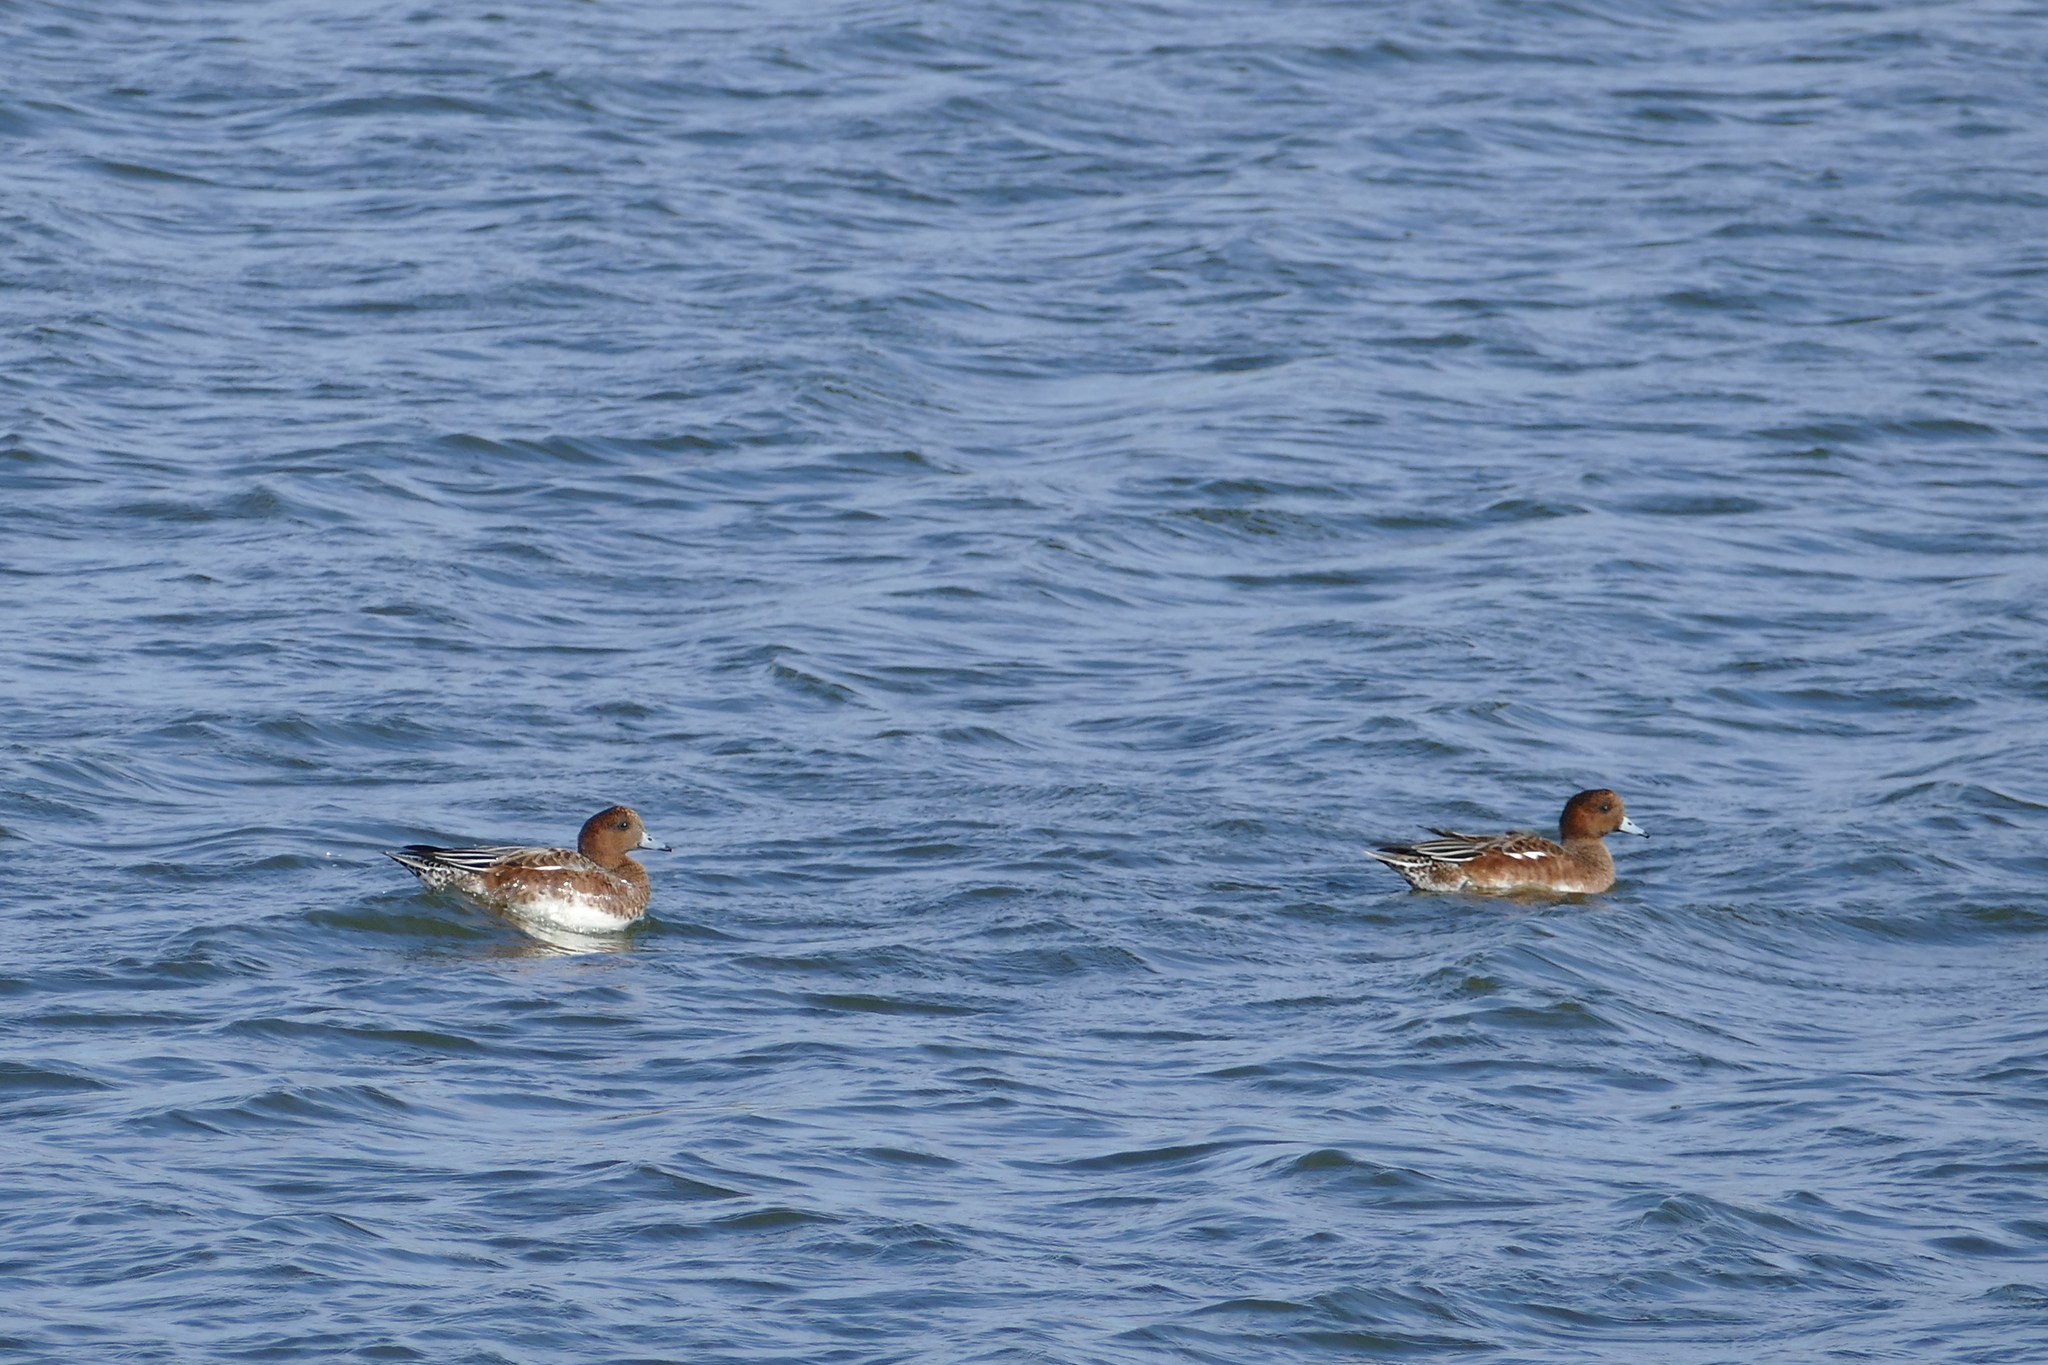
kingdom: Animalia
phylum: Chordata
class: Aves
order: Anseriformes
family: Anatidae
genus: Mareca
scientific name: Mareca penelope
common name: Eurasian wigeon
